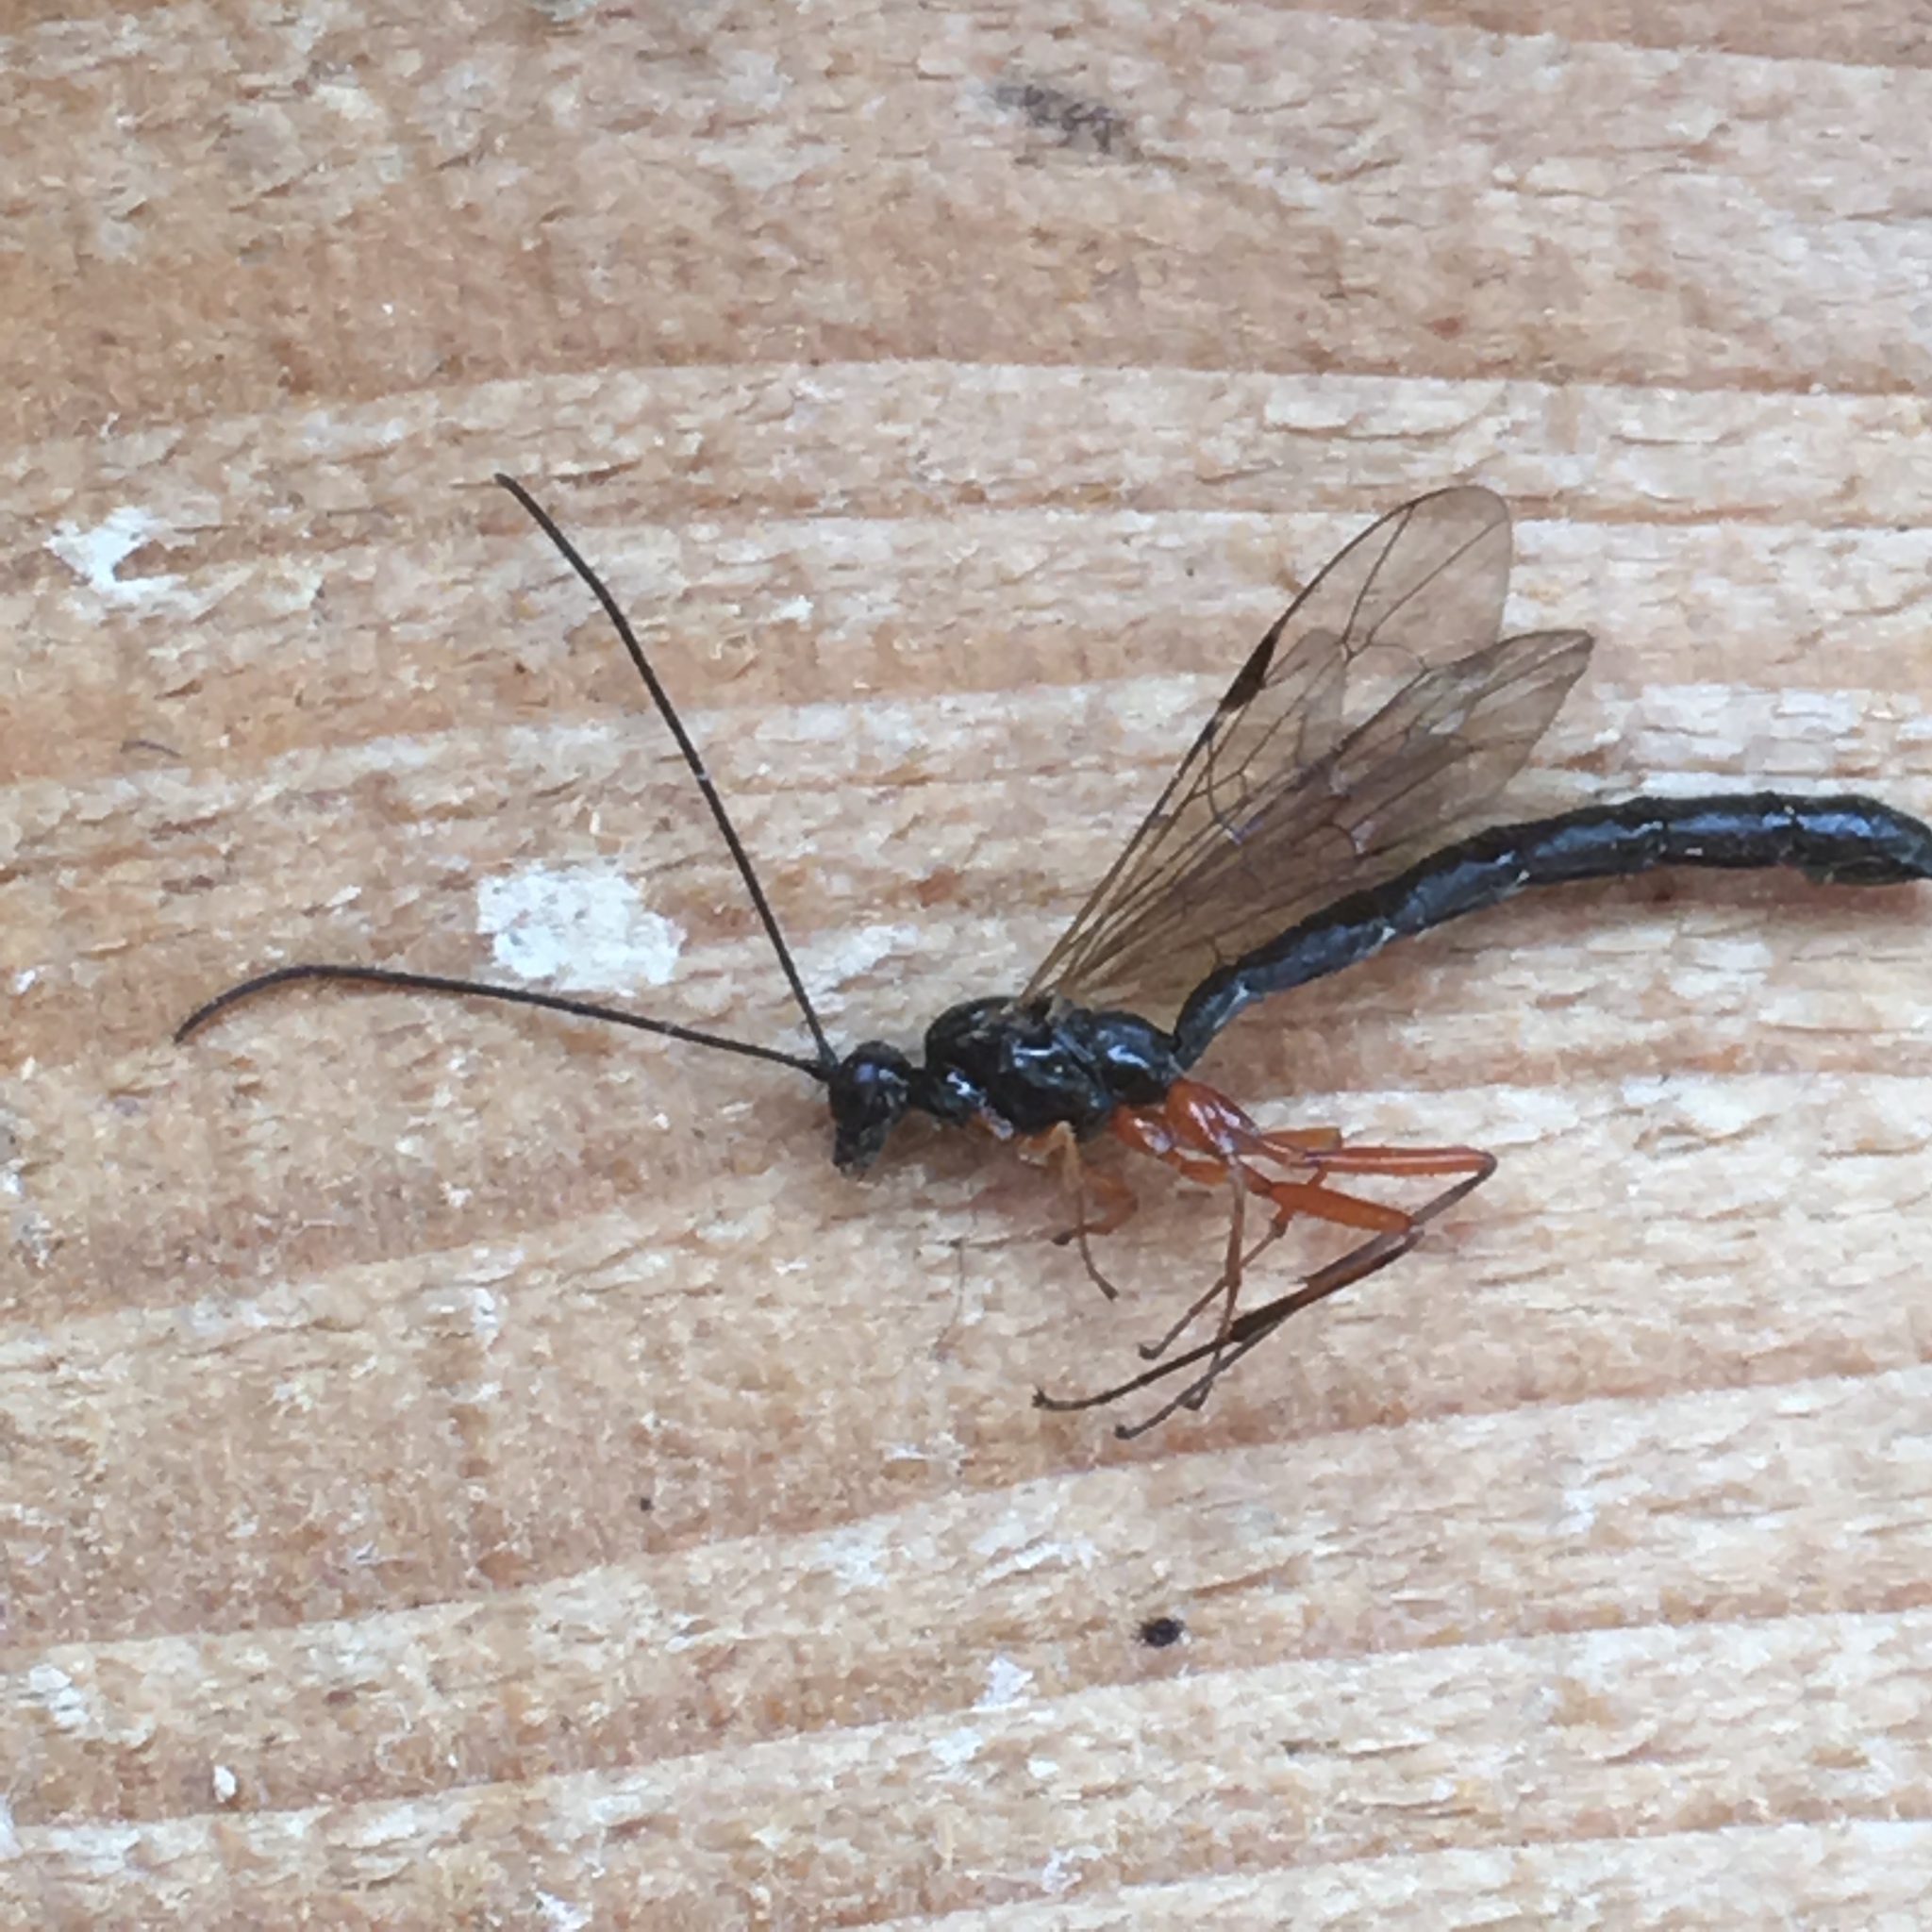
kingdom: Animalia
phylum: Arthropoda
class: Insecta
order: Hymenoptera
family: Ichneumonidae
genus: Ephialtes
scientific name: Ephialtes manifestator
